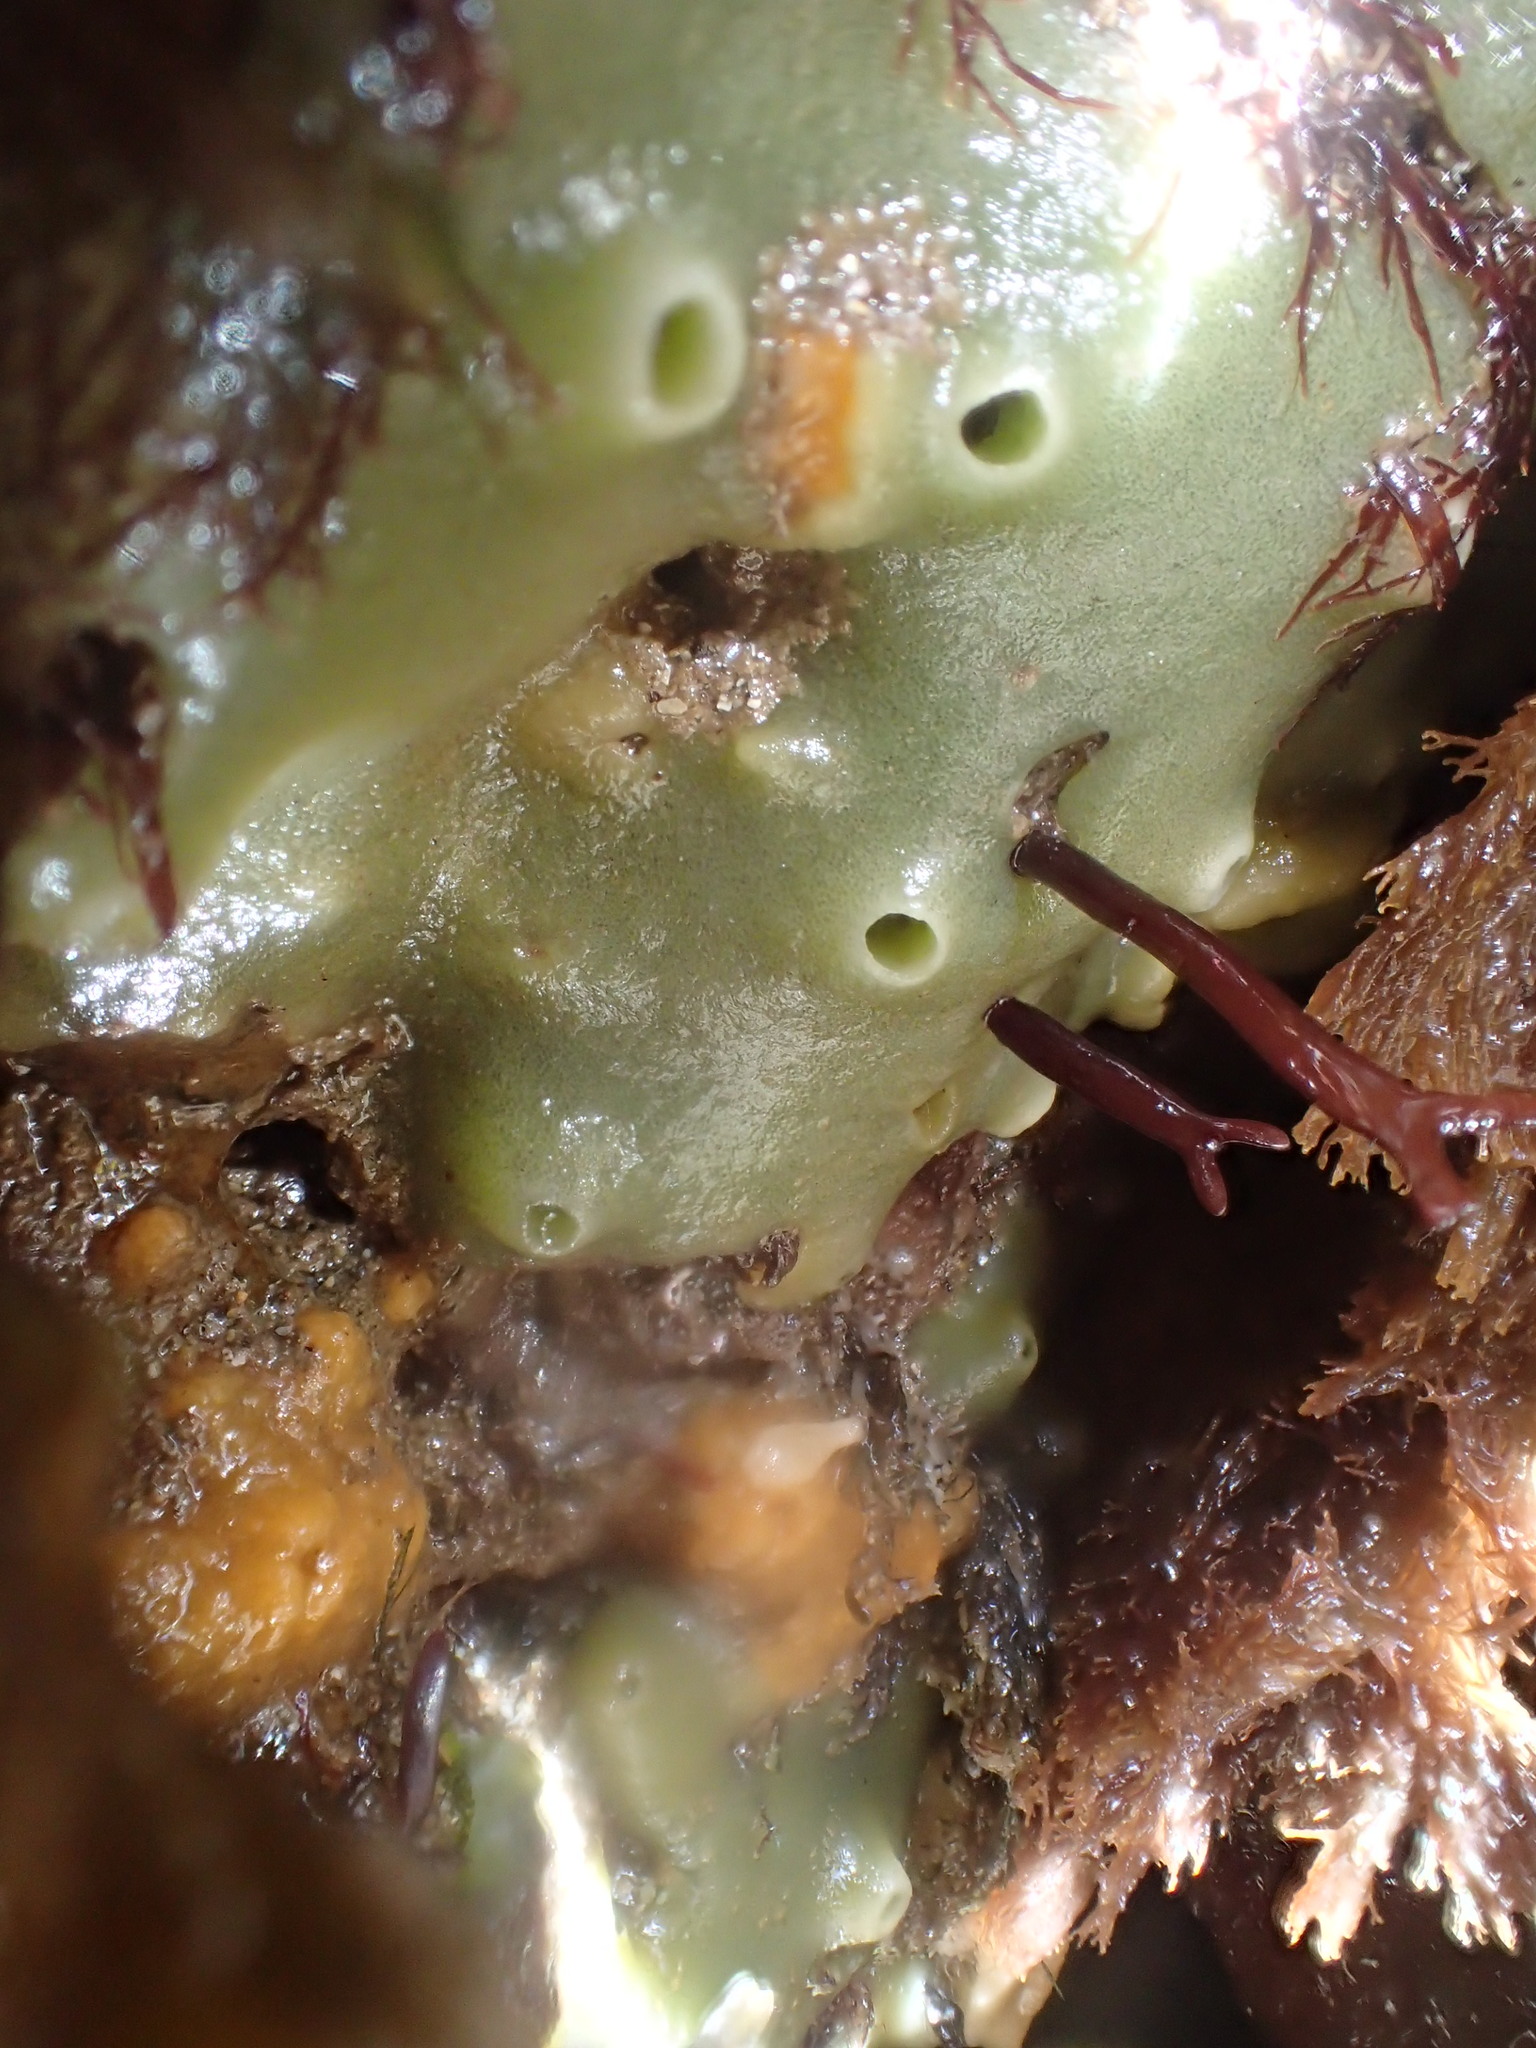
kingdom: Animalia
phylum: Porifera
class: Demospongiae
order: Suberitida
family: Halichondriidae
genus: Halichondria
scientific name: Halichondria panicea
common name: Breadcrumb sponge
